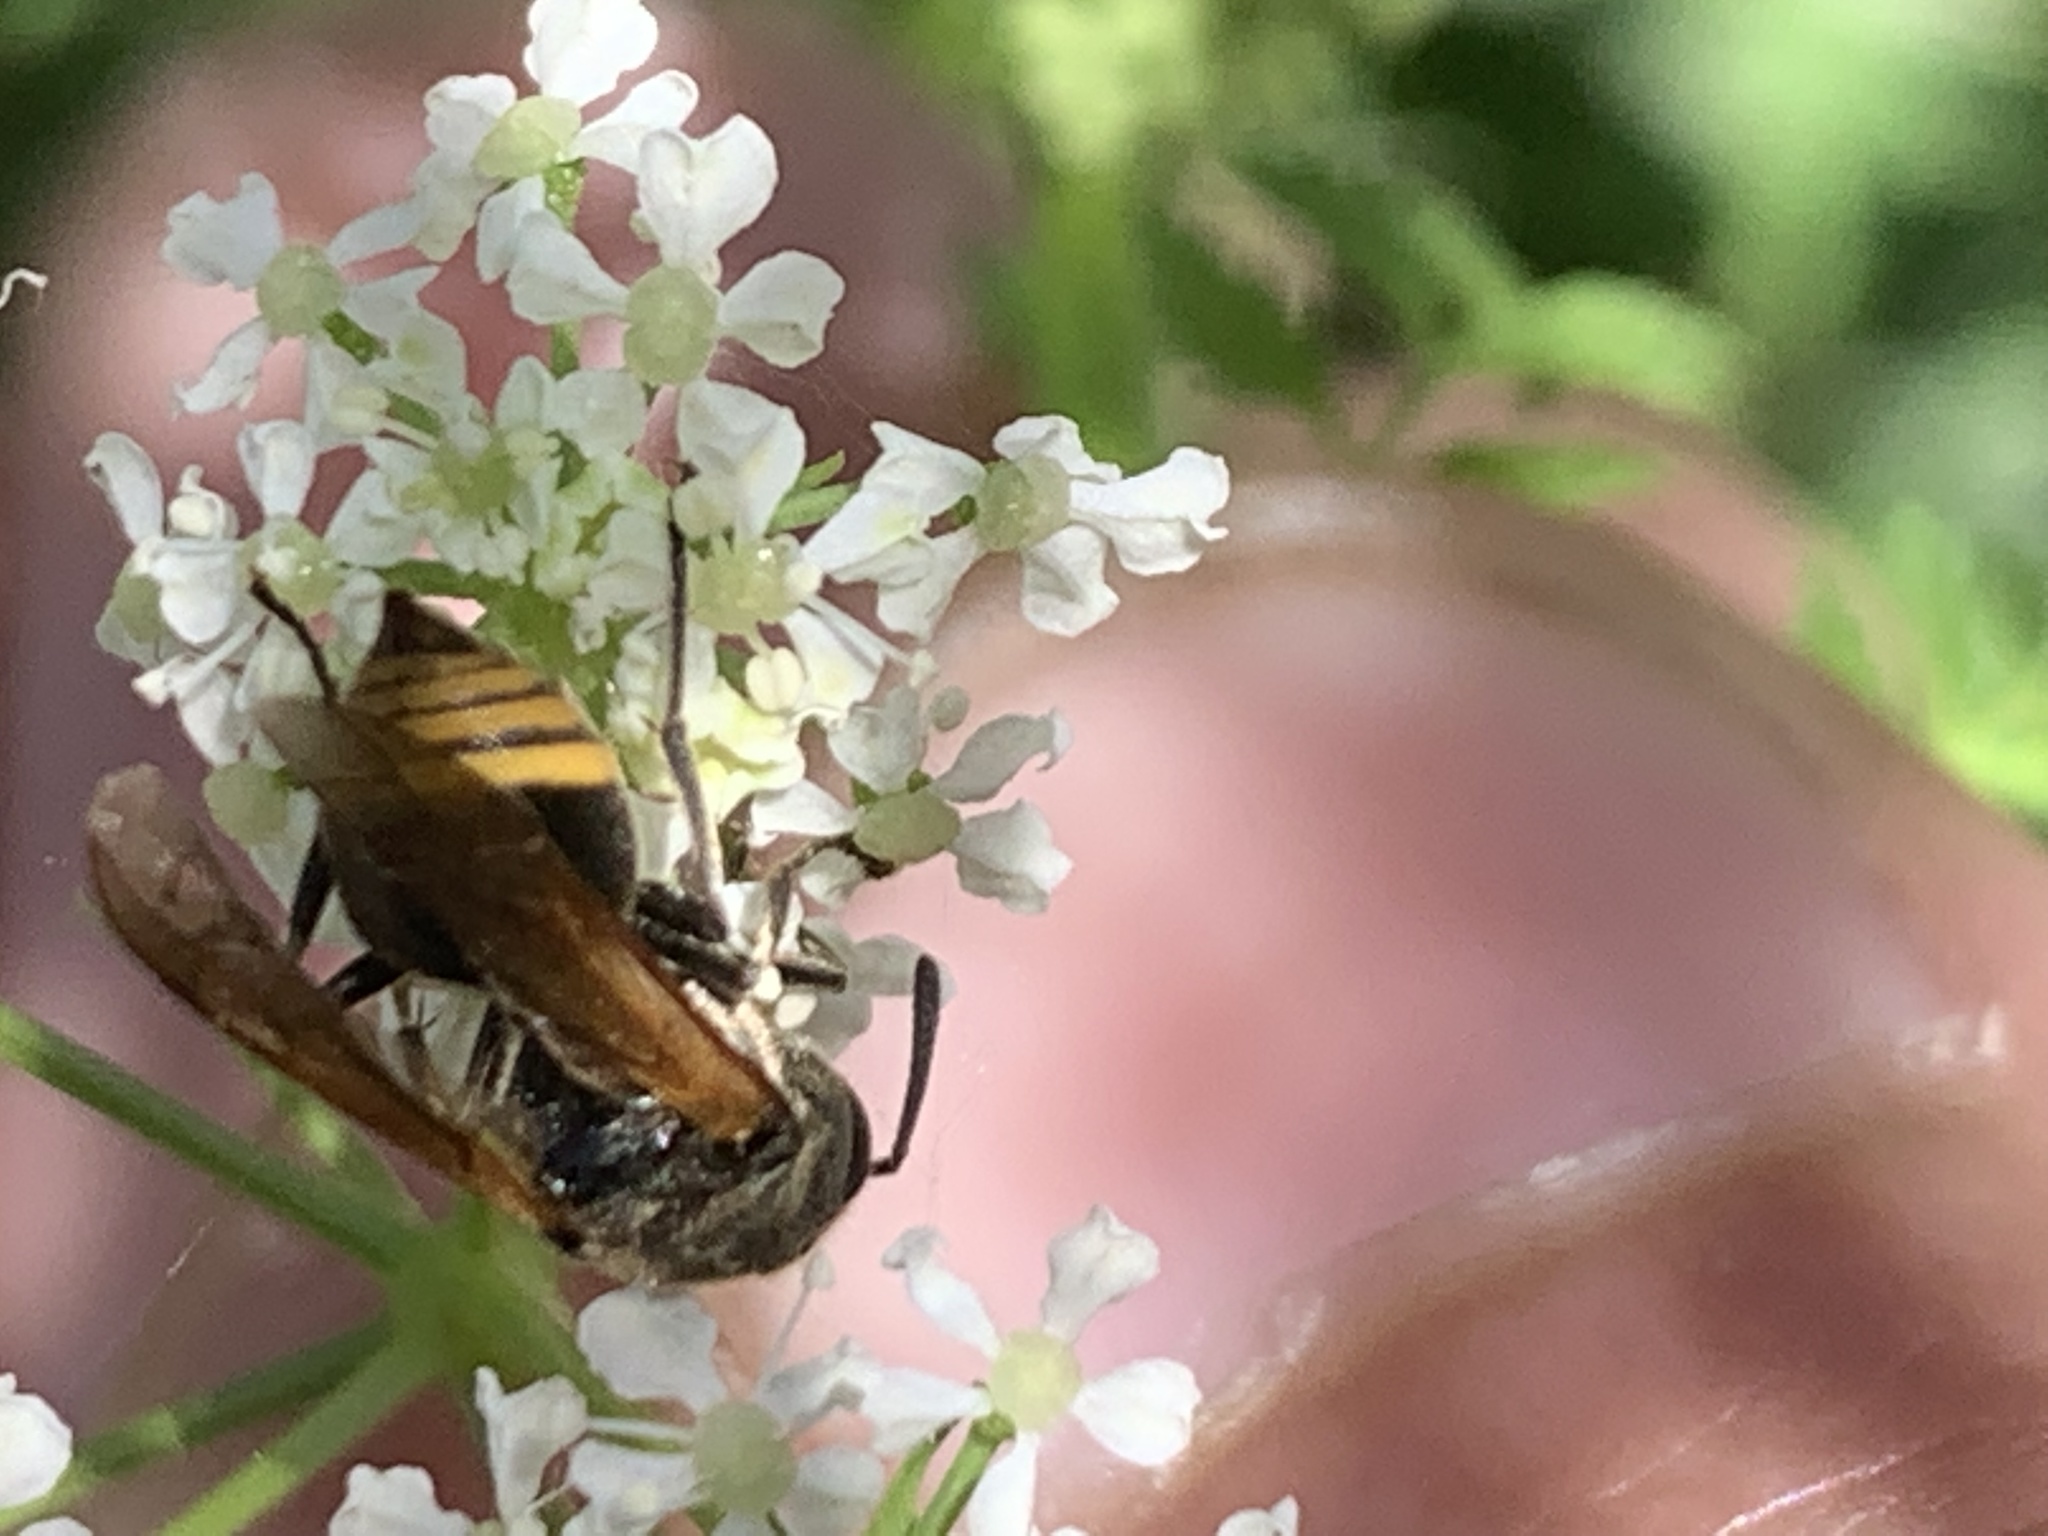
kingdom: Animalia
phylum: Arthropoda
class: Insecta
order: Hymenoptera
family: Vespidae
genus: Brachygastra
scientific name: Brachygastra lecheguana
